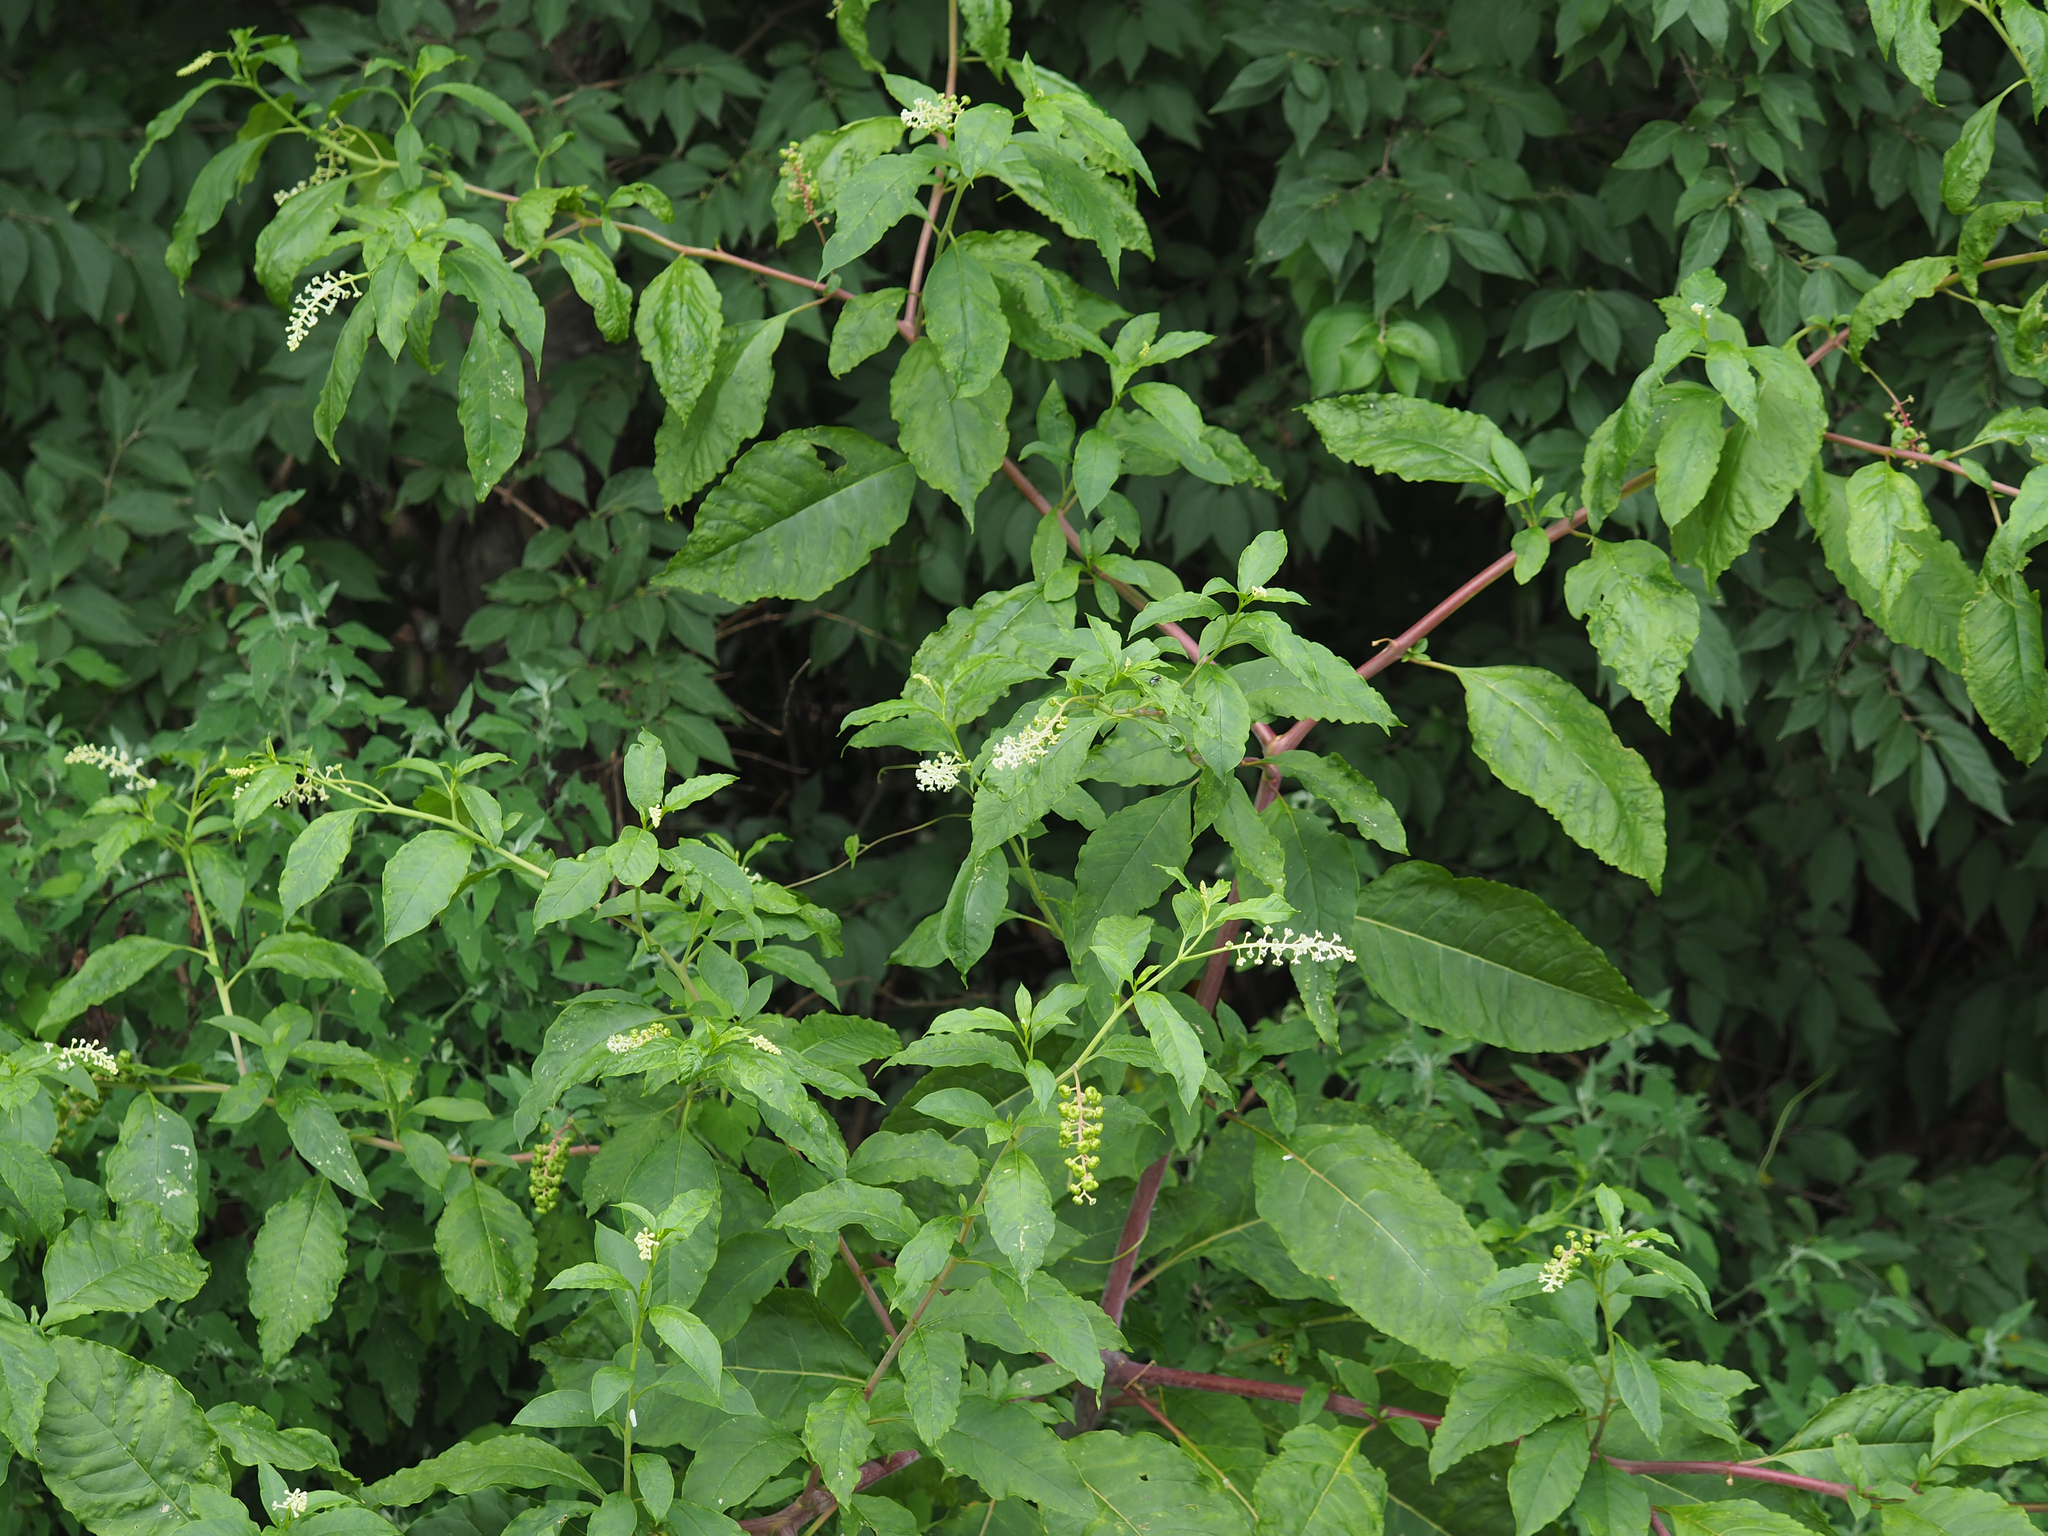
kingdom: Plantae
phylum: Tracheophyta
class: Magnoliopsida
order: Caryophyllales
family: Phytolaccaceae
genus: Phytolacca
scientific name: Phytolacca americana
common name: American pokeweed
